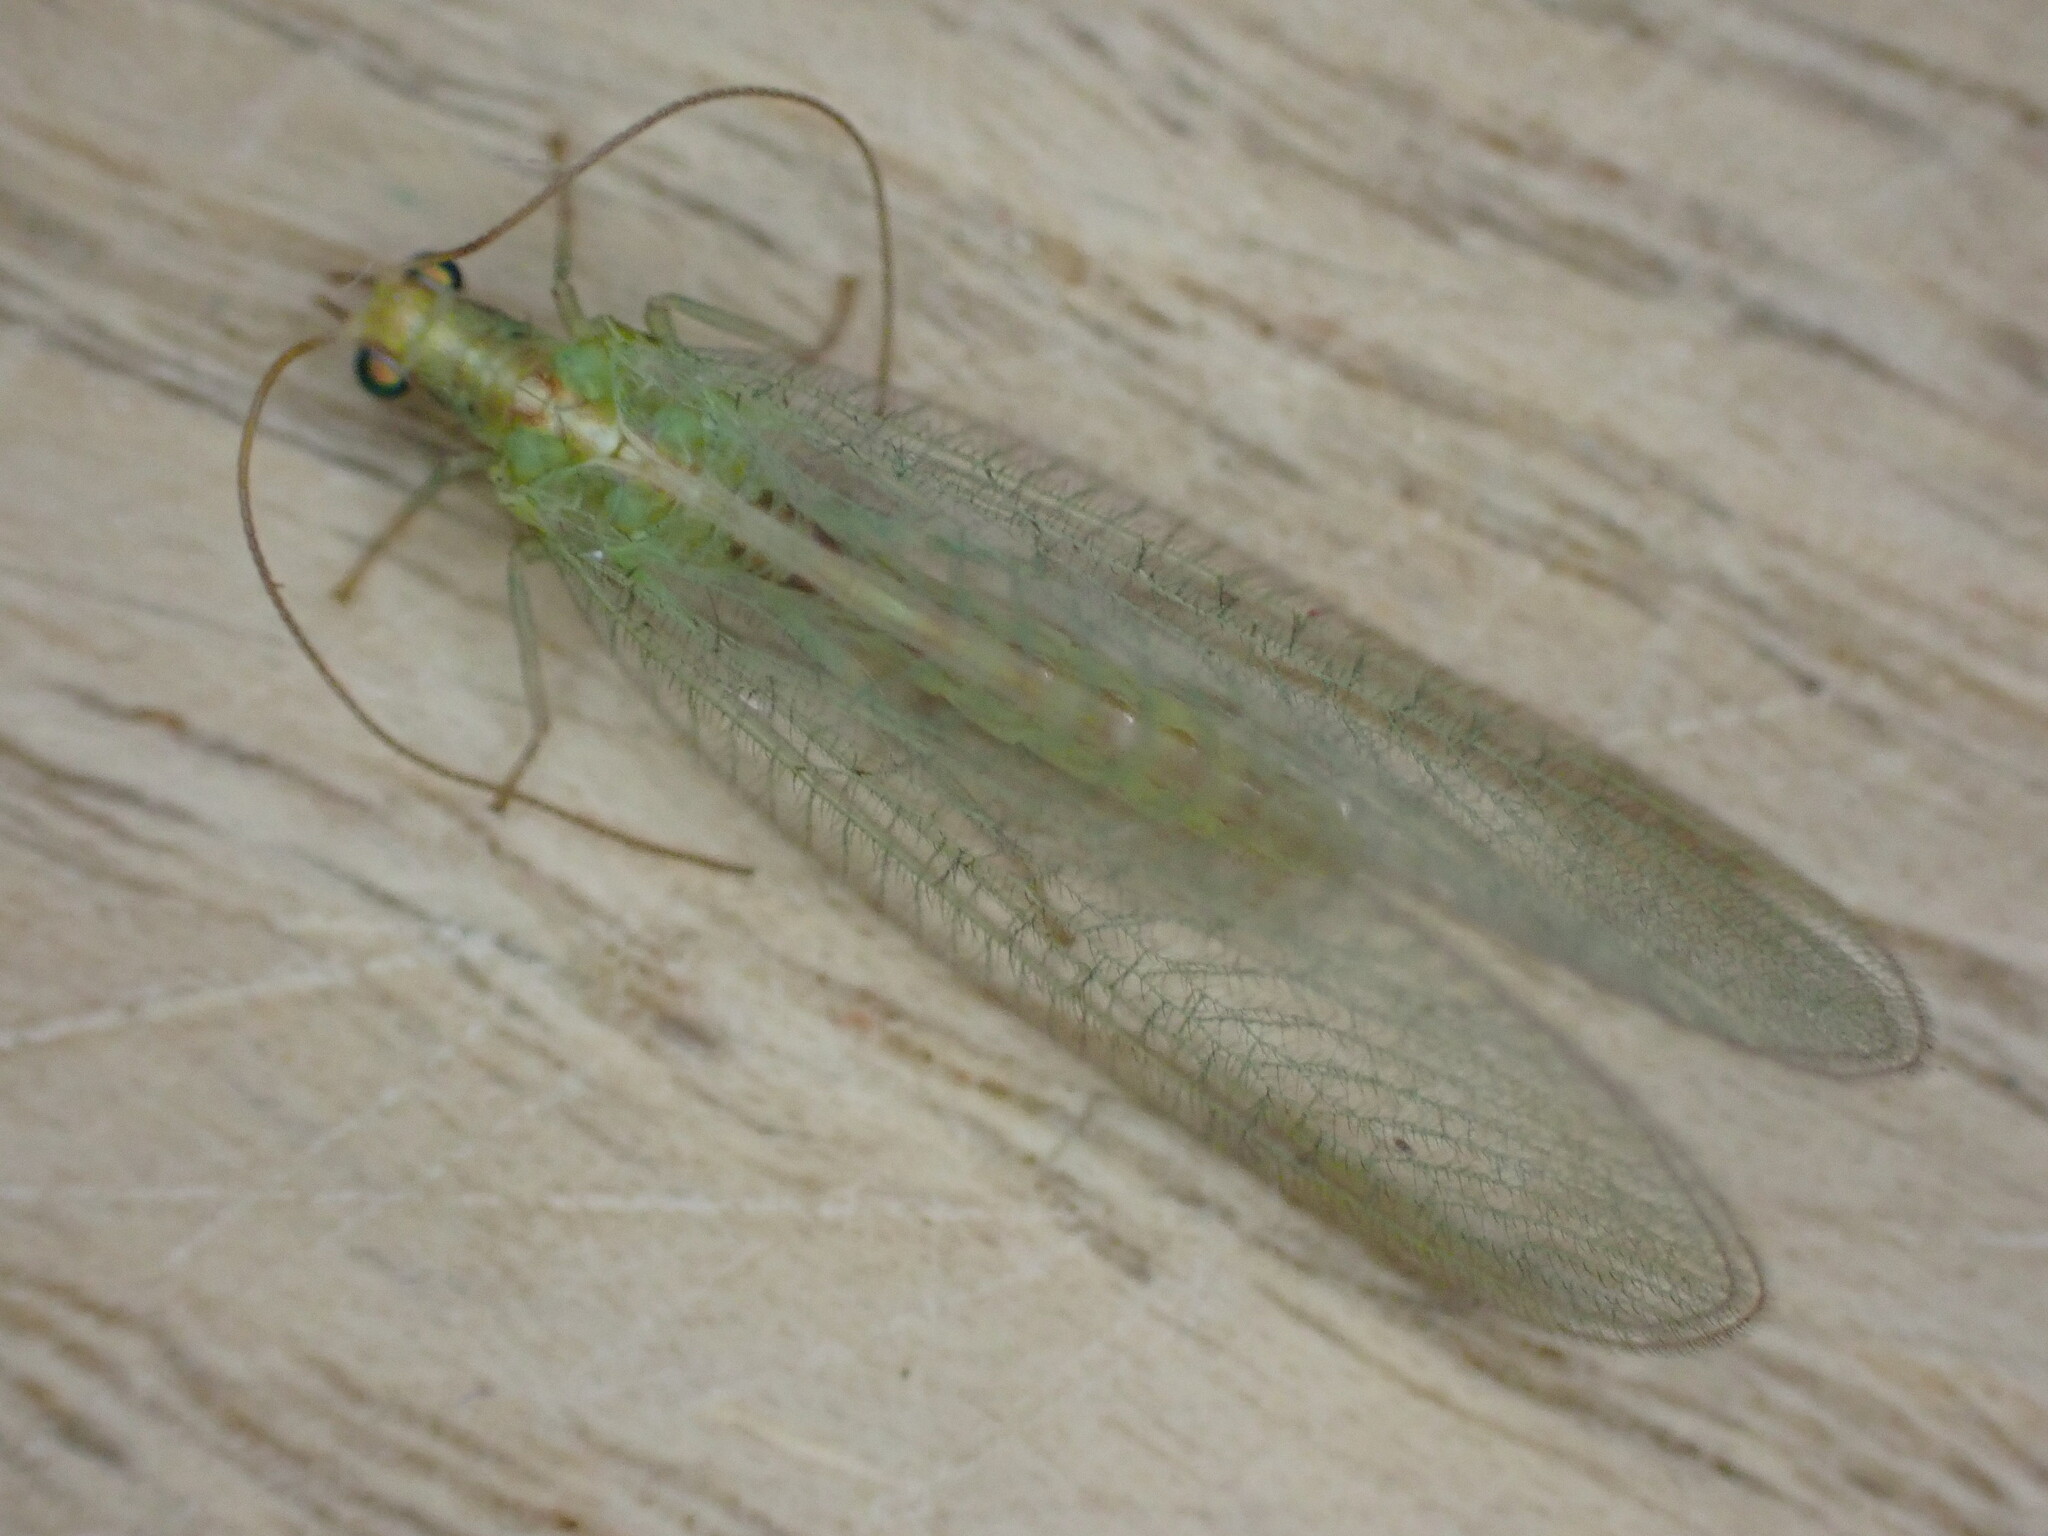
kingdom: Animalia
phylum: Arthropoda
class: Insecta
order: Neuroptera
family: Chrysopidae
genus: Chrysoperla
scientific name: Chrysoperla
